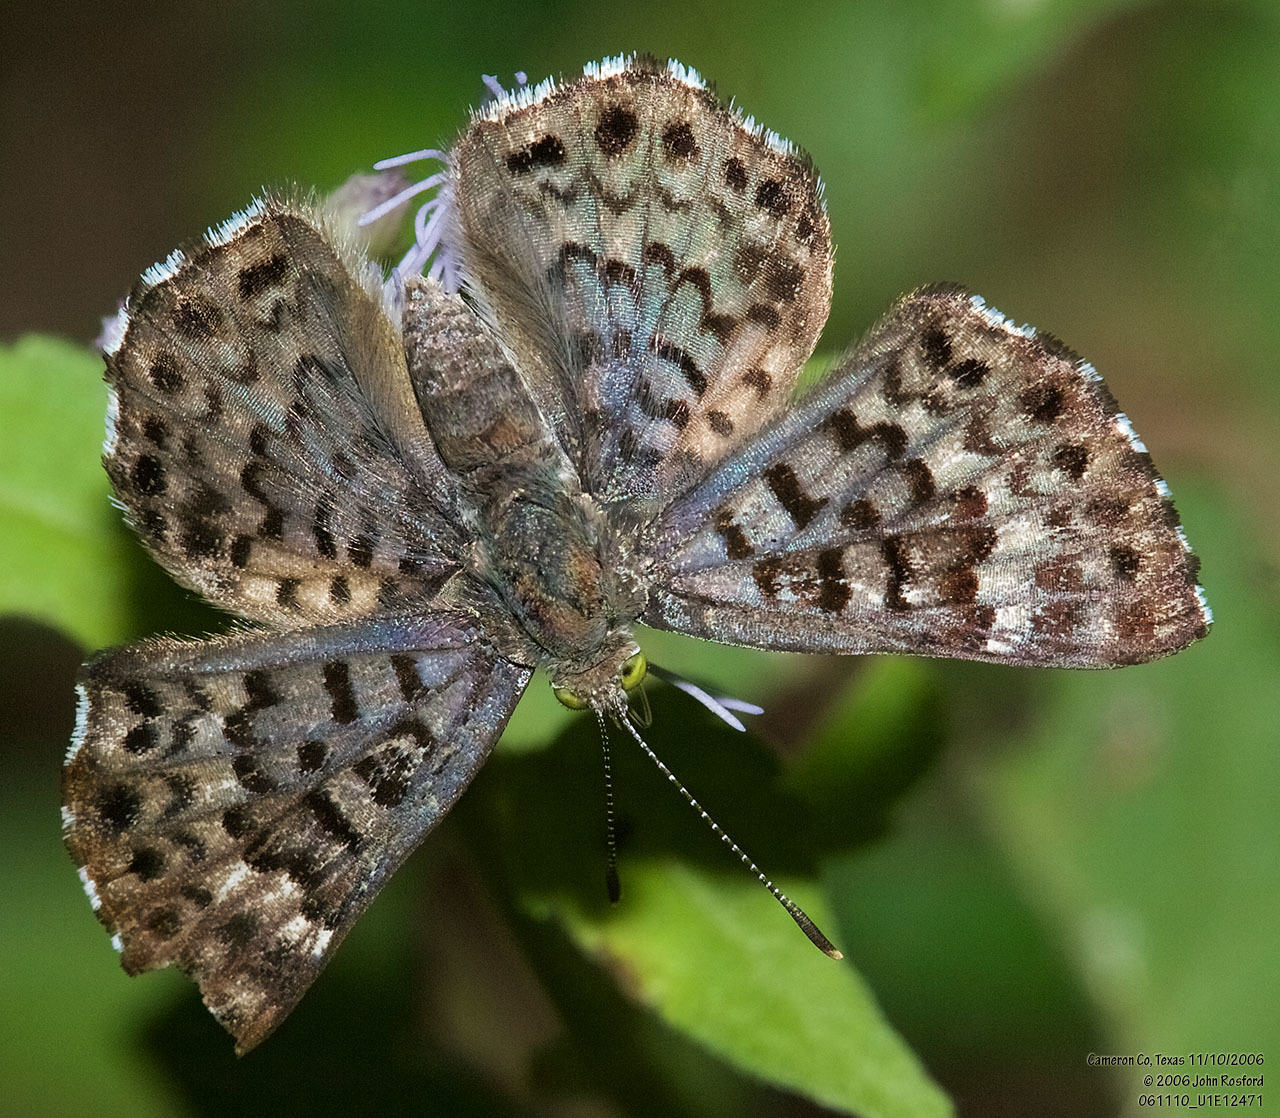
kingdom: Animalia
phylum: Arthropoda
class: Insecta
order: Lepidoptera
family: Riodinidae
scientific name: Riodinidae
